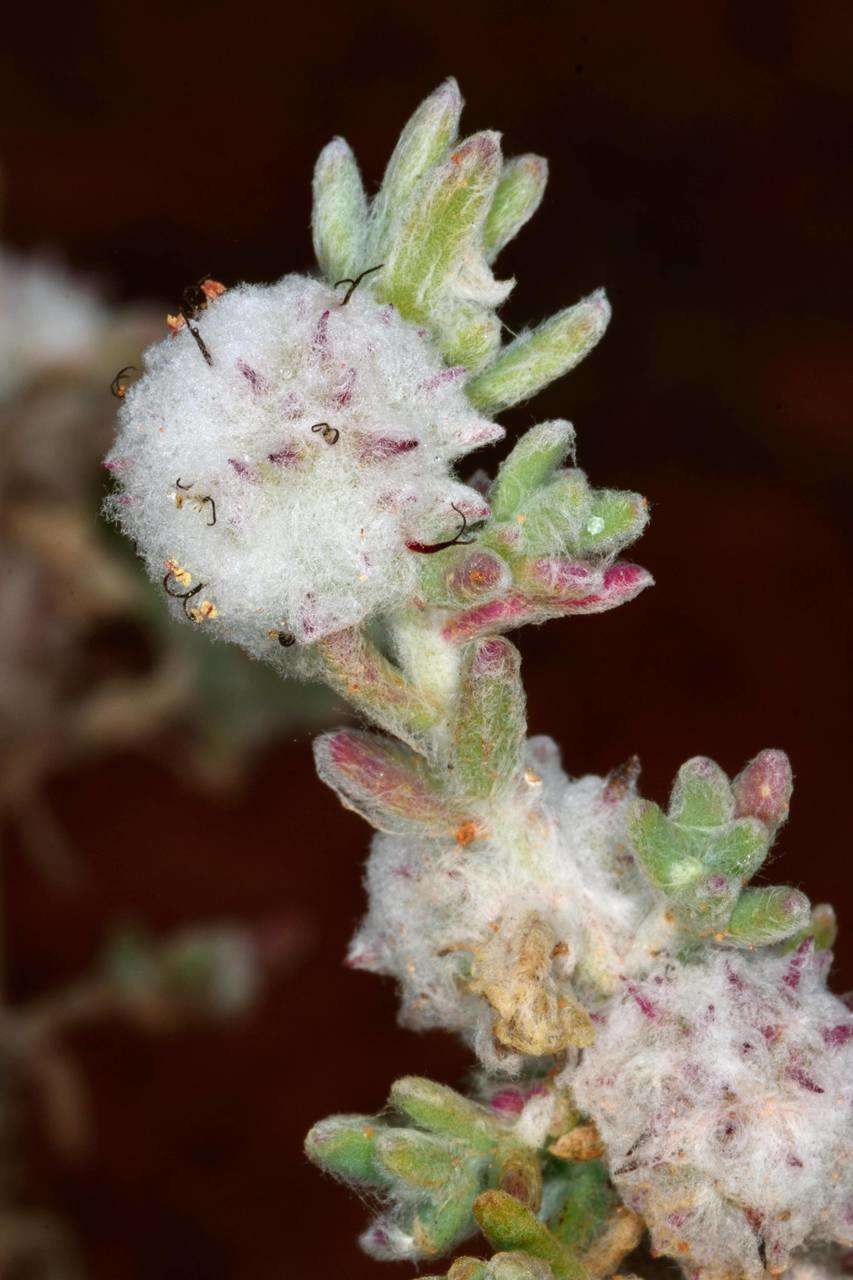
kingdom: Plantae
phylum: Tracheophyta
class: Magnoliopsida
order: Caryophyllales
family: Amaranthaceae
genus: Dissocarpus
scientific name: Dissocarpus paradoxus
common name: Bur-saltbush
